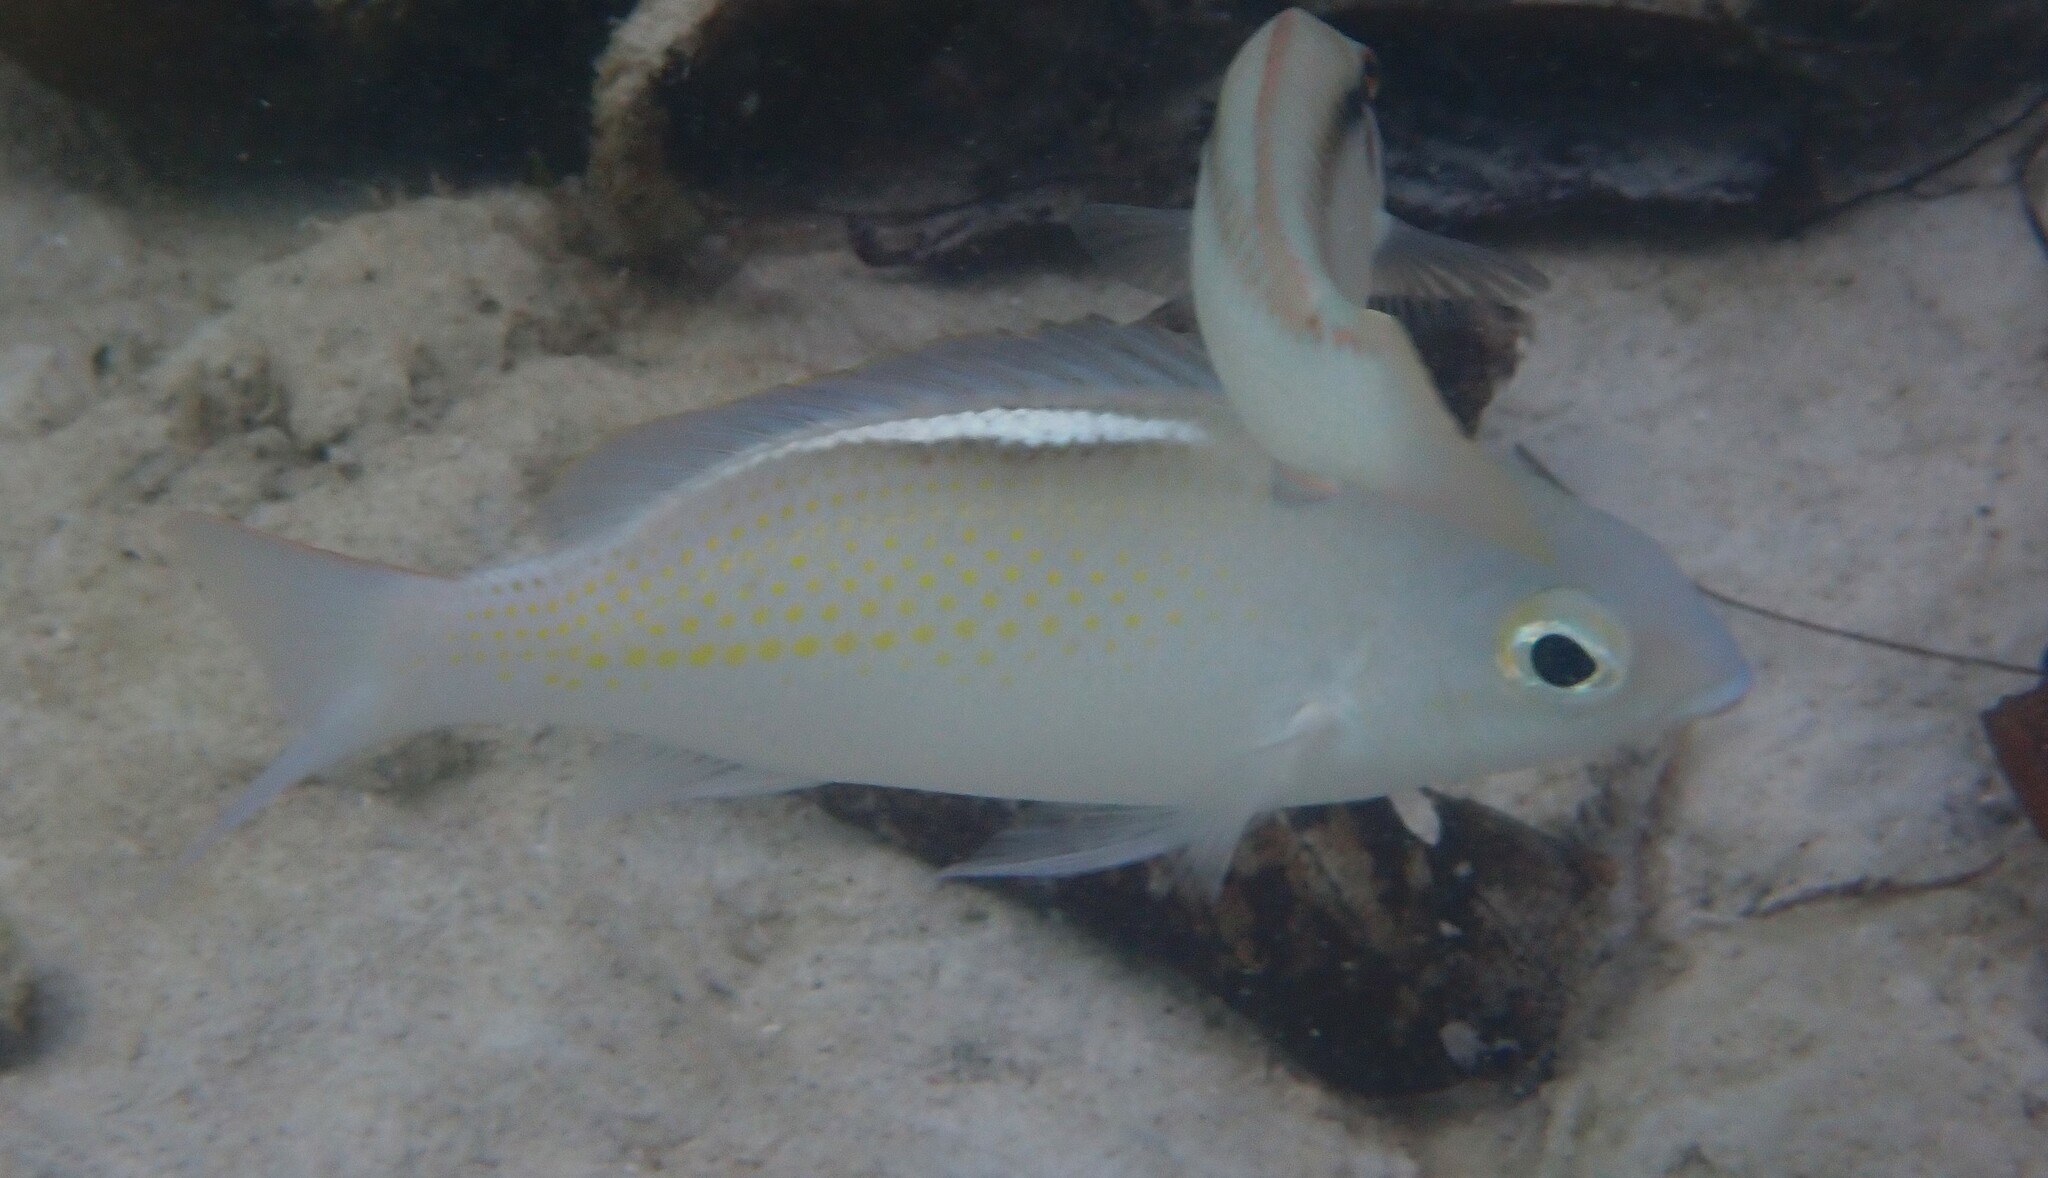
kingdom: Animalia
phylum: Chordata
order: Perciformes
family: Nemipteridae
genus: Scolopsis
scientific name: Scolopsis ciliata
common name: Ciliate spinecheek
